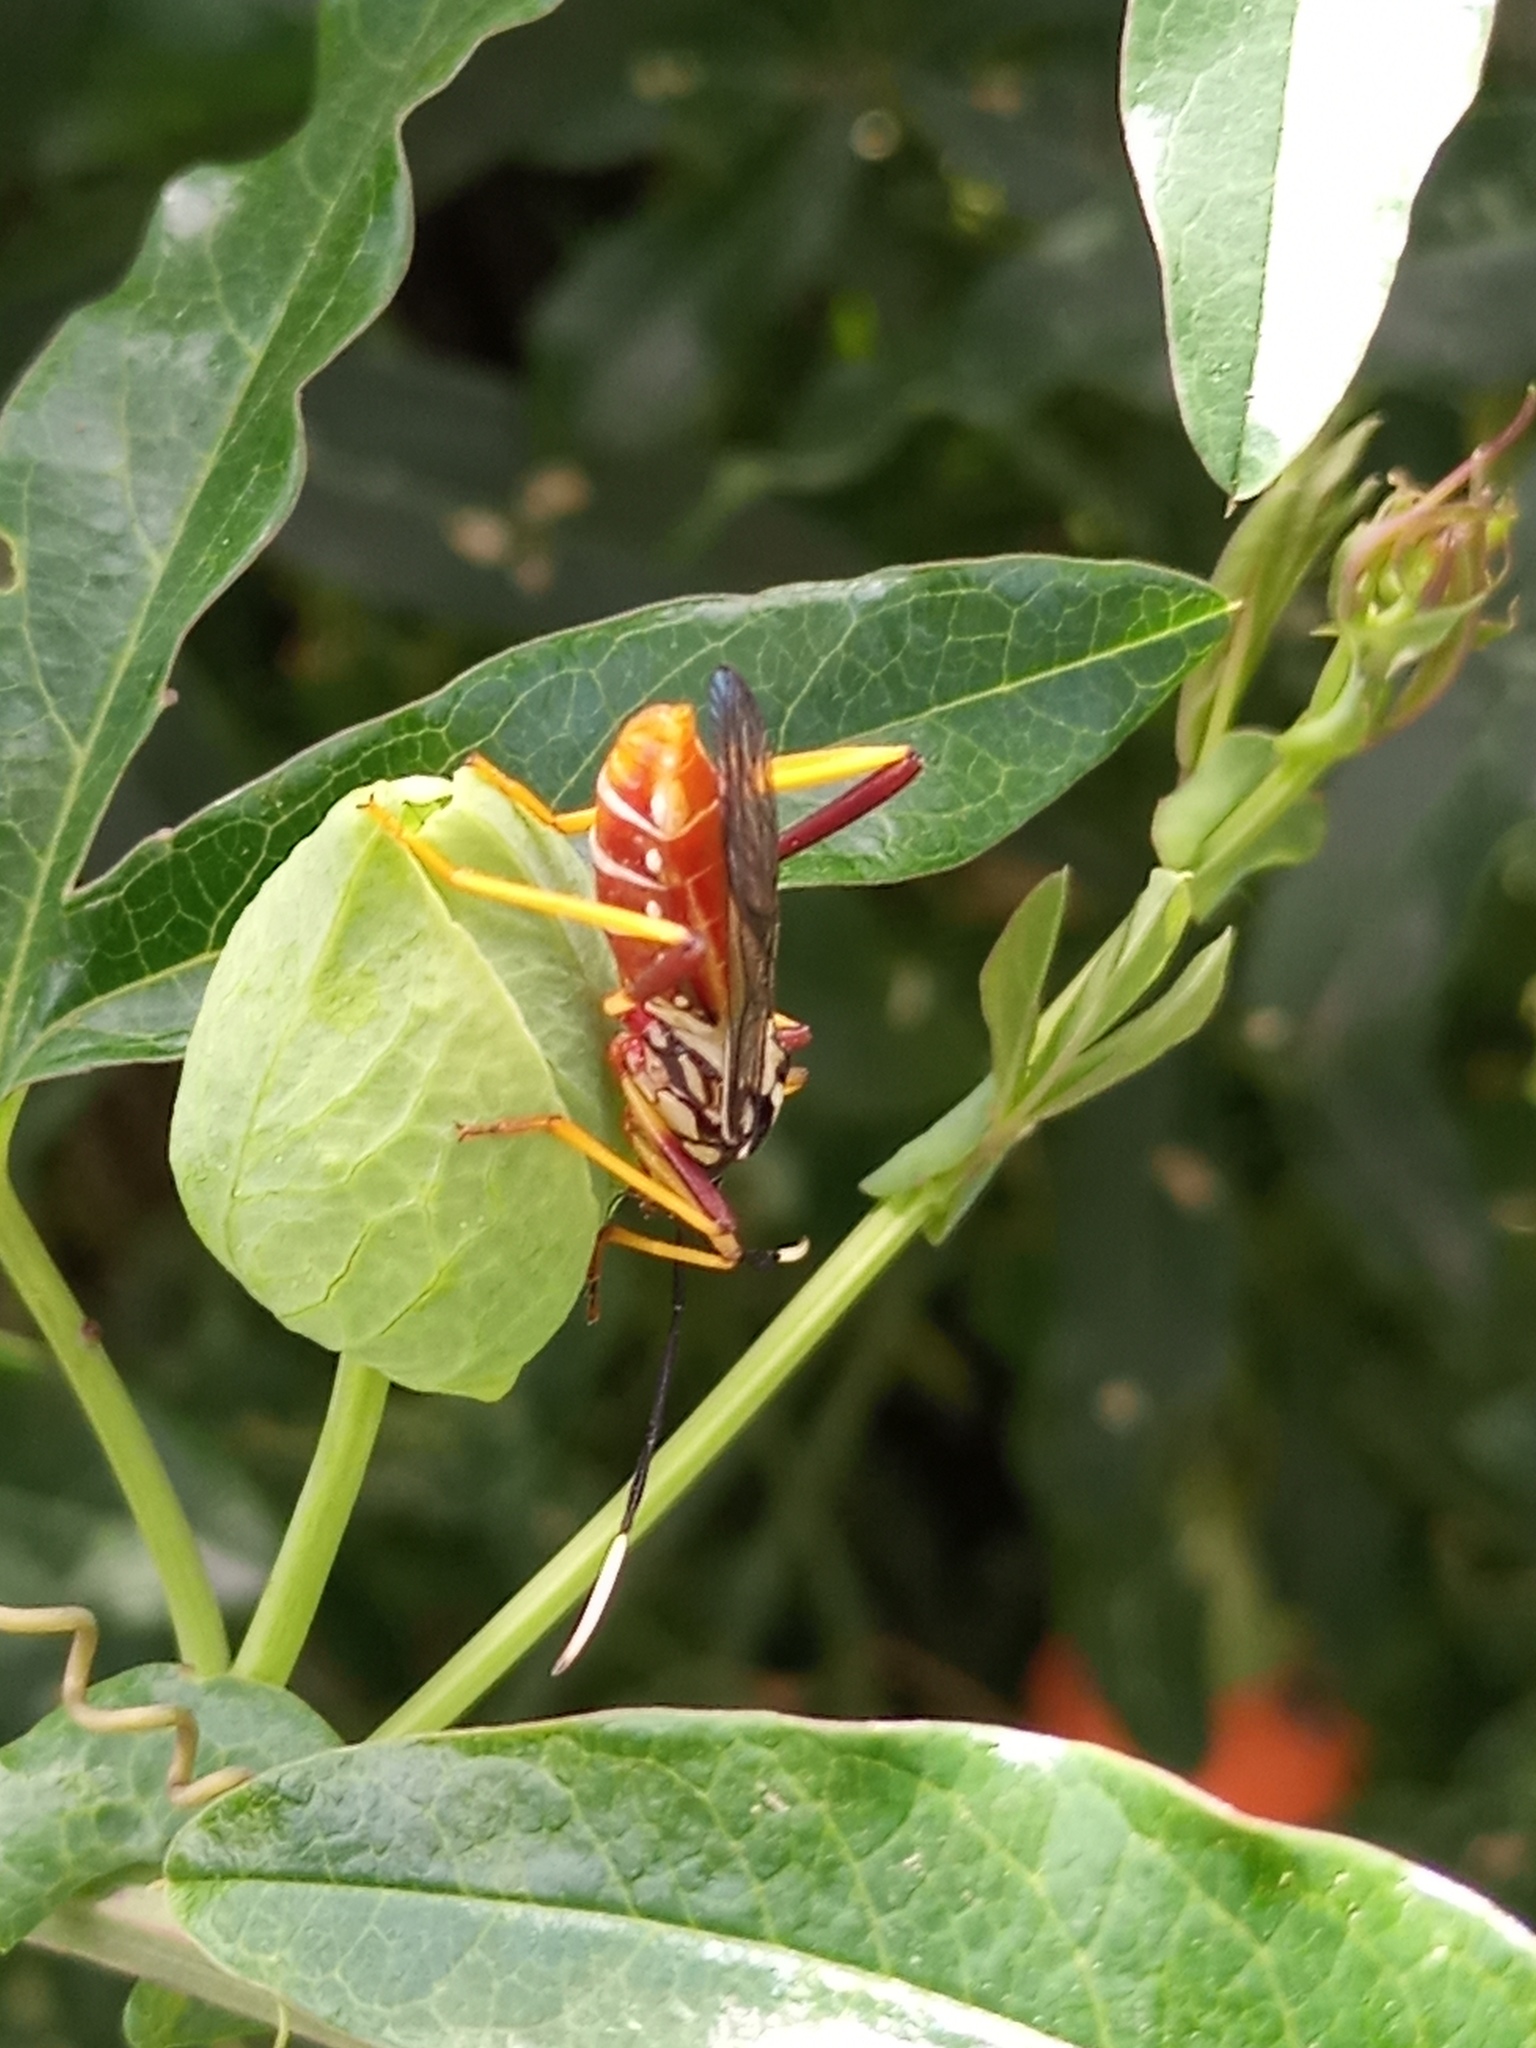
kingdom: Plantae
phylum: Tracheophyta
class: Magnoliopsida
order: Malpighiales
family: Passifloraceae
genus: Passiflora
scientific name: Passiflora caerulea
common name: Blue passionflower
